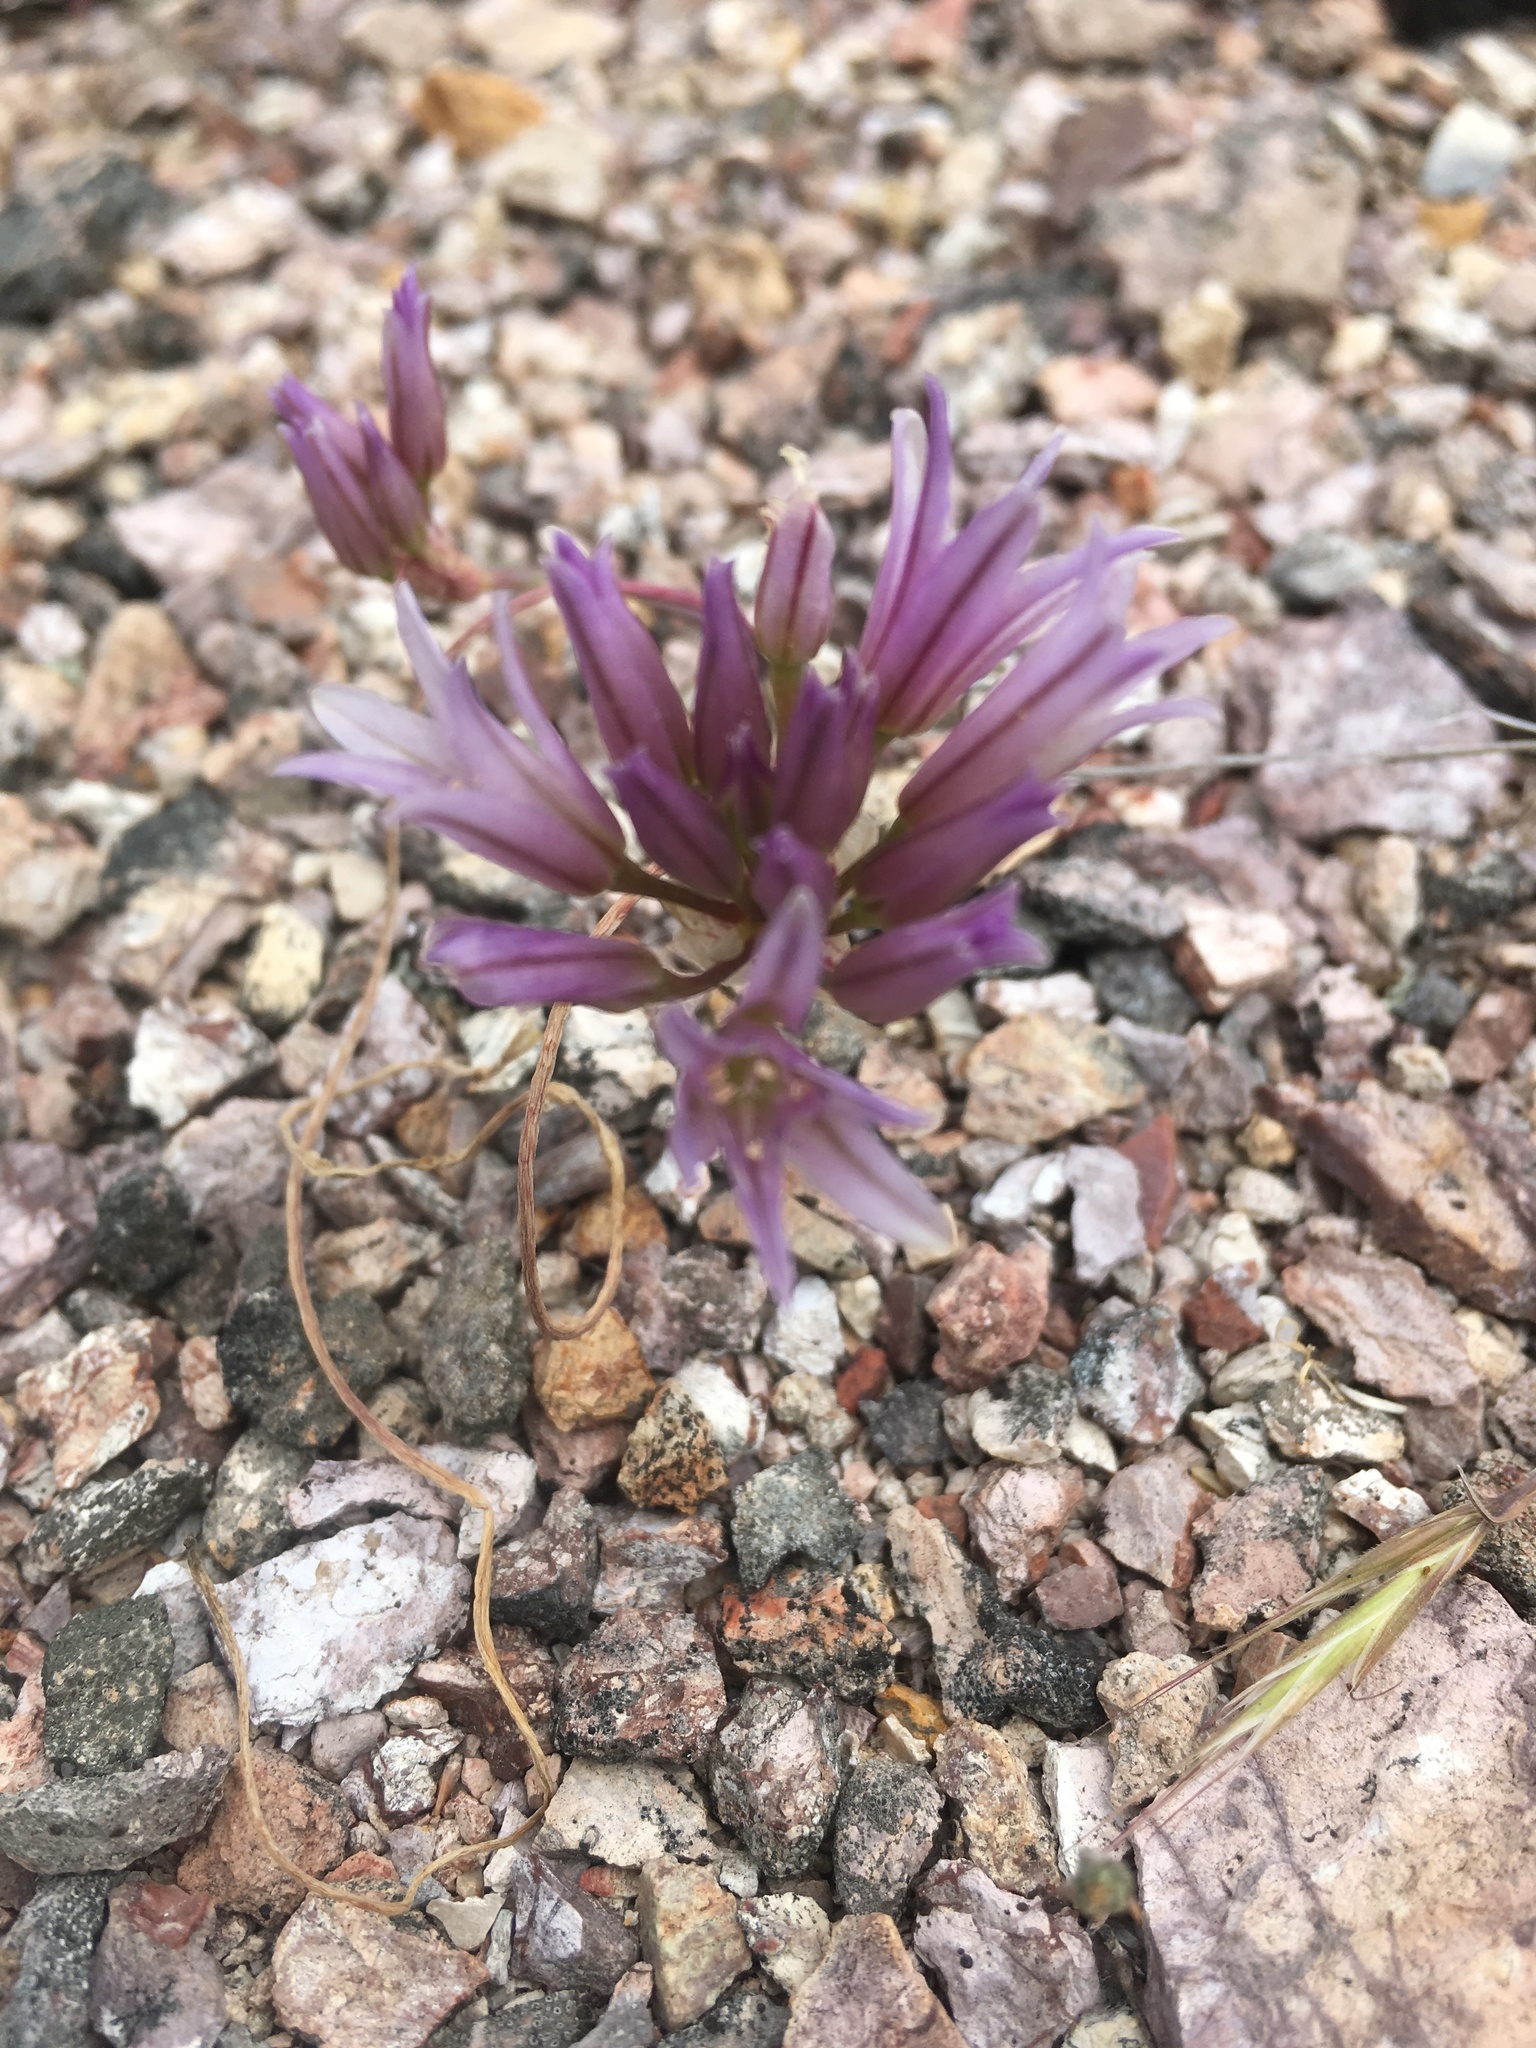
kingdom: Plantae
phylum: Tracheophyta
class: Liliopsida
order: Asparagales
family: Amaryllidaceae
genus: Allium
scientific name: Allium fimbriatum
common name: Fringed onion
